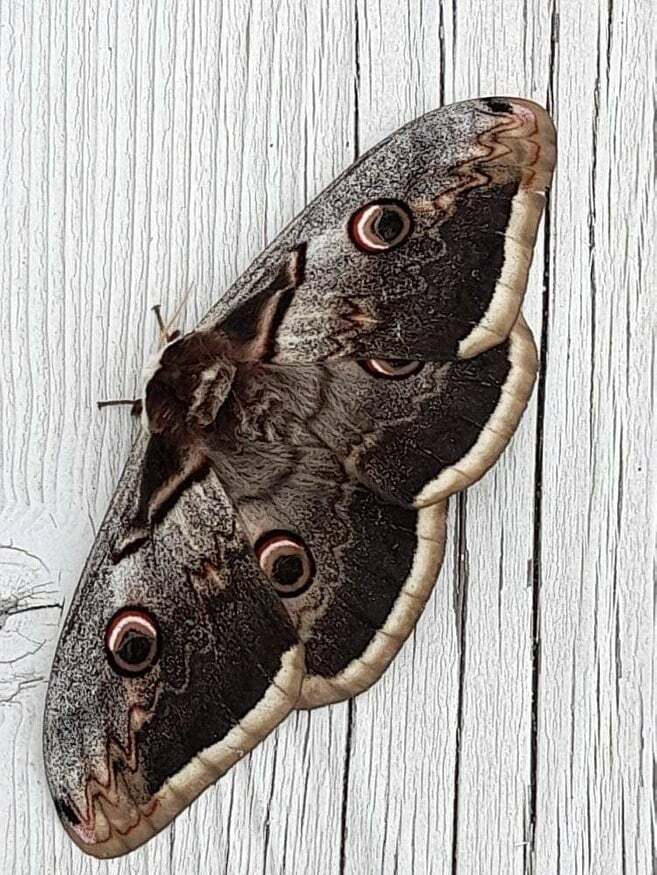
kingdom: Animalia
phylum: Arthropoda
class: Insecta
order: Lepidoptera
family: Saturniidae
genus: Saturnia
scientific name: Saturnia pyri
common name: Great peacock moth
